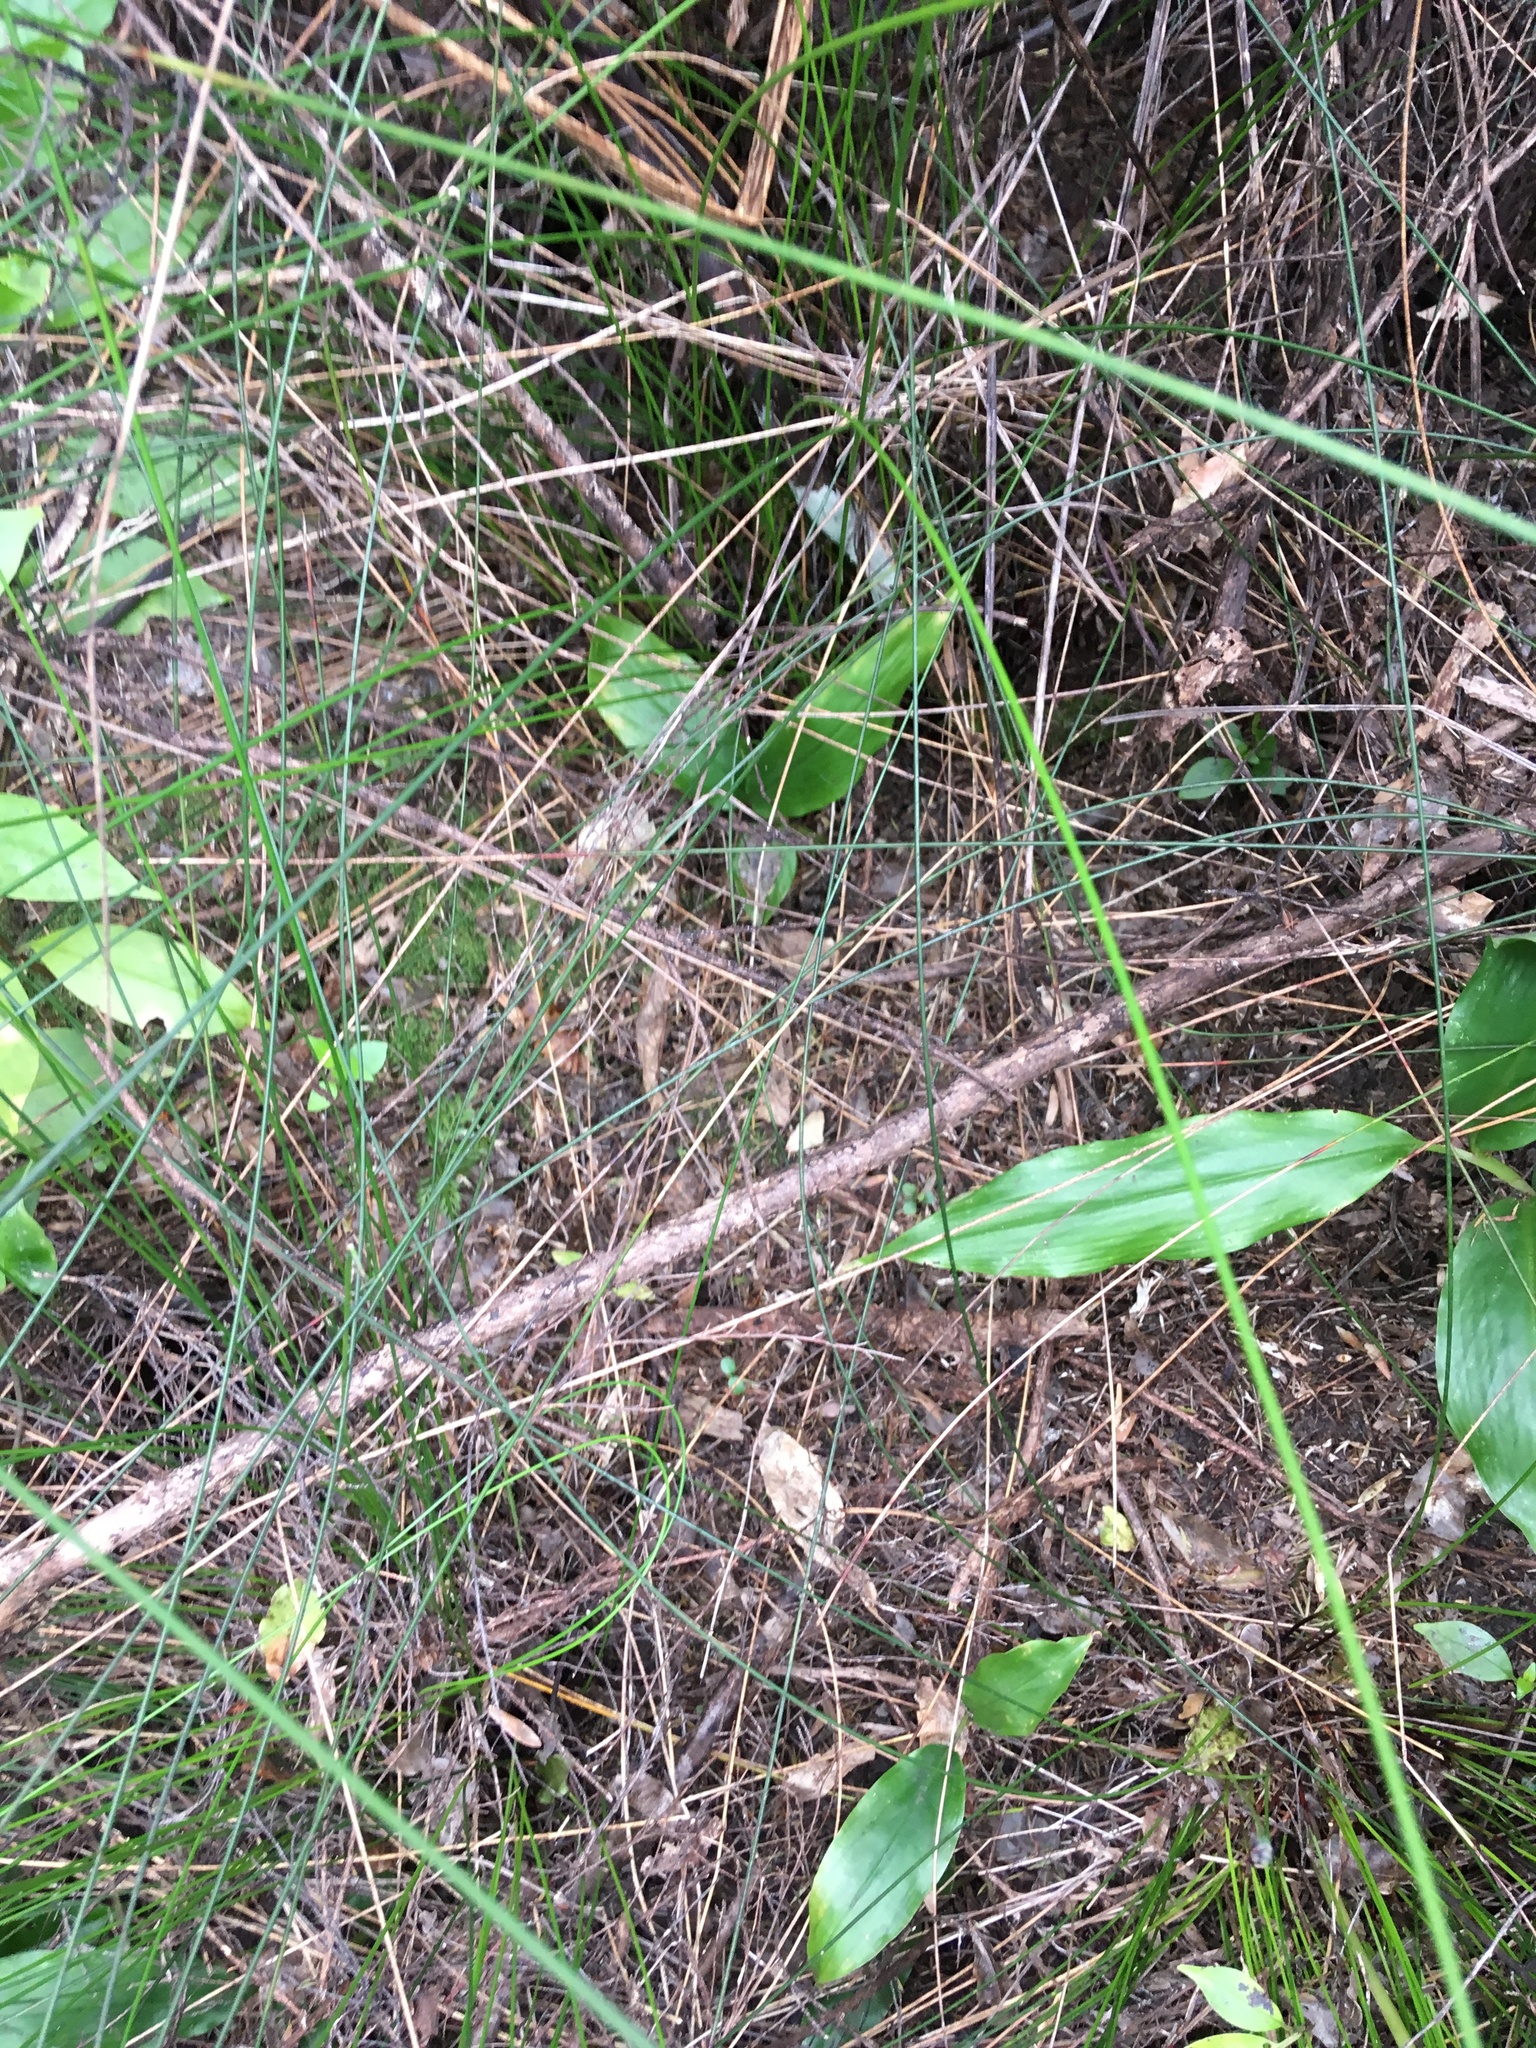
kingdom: Plantae
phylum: Tracheophyta
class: Liliopsida
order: Zingiberales
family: Zingiberaceae
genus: Hedychium
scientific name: Hedychium gardnerianum
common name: Himalayan ginger
